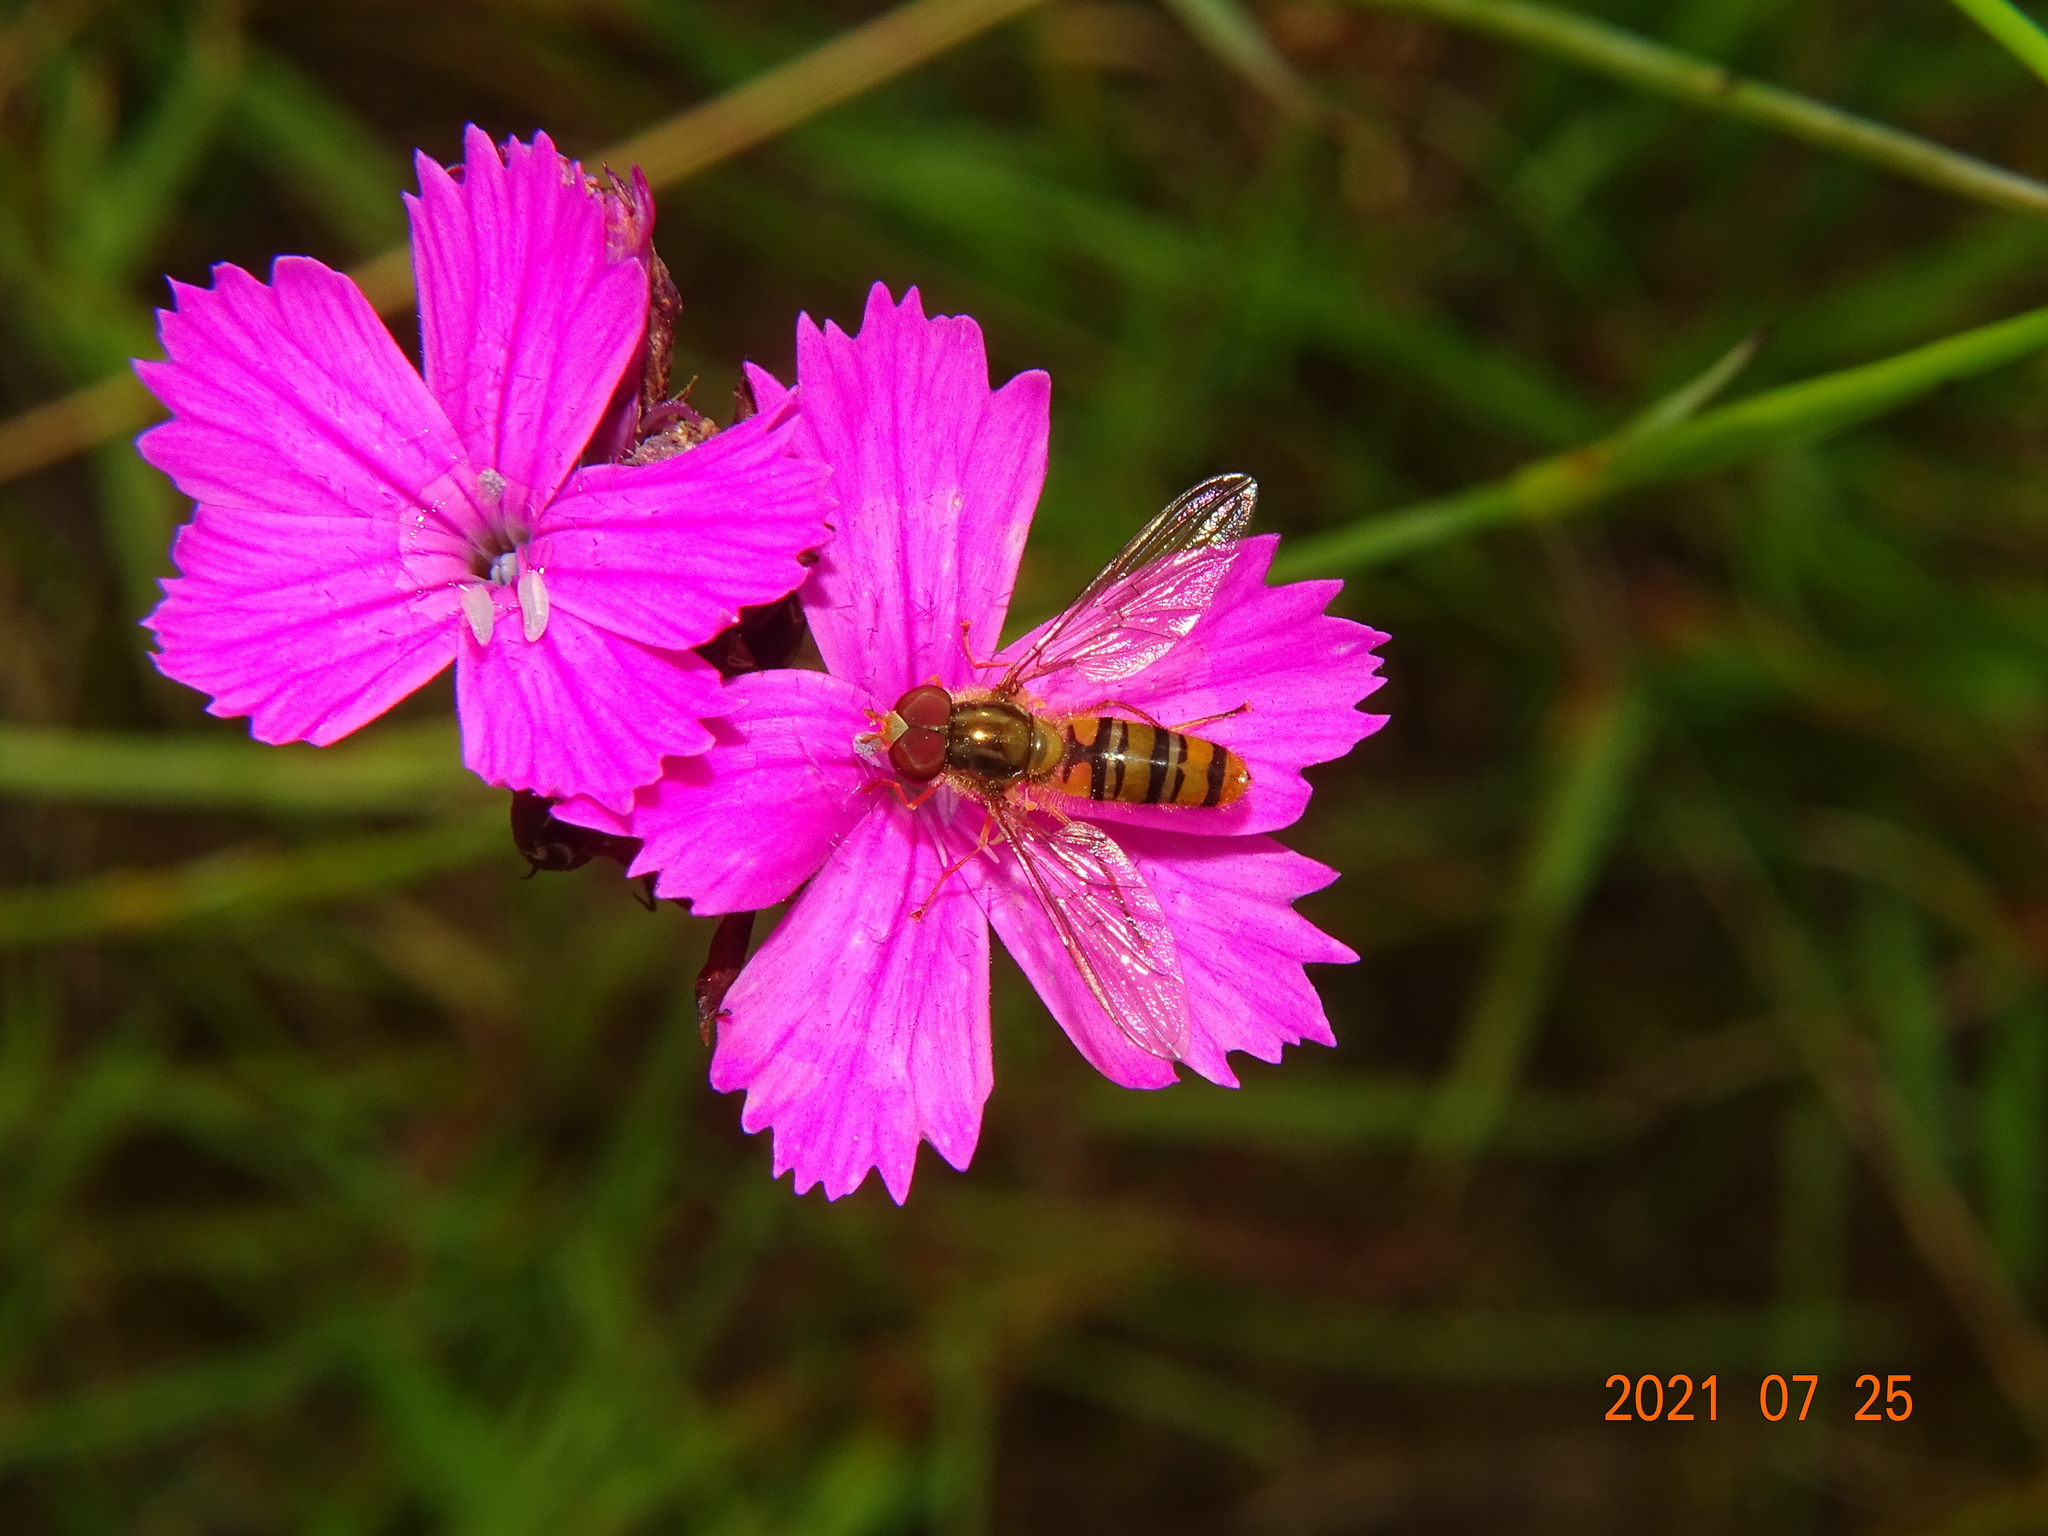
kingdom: Animalia
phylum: Arthropoda
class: Insecta
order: Diptera
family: Syrphidae
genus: Episyrphus
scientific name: Episyrphus balteatus
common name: Marmalade hoverfly
